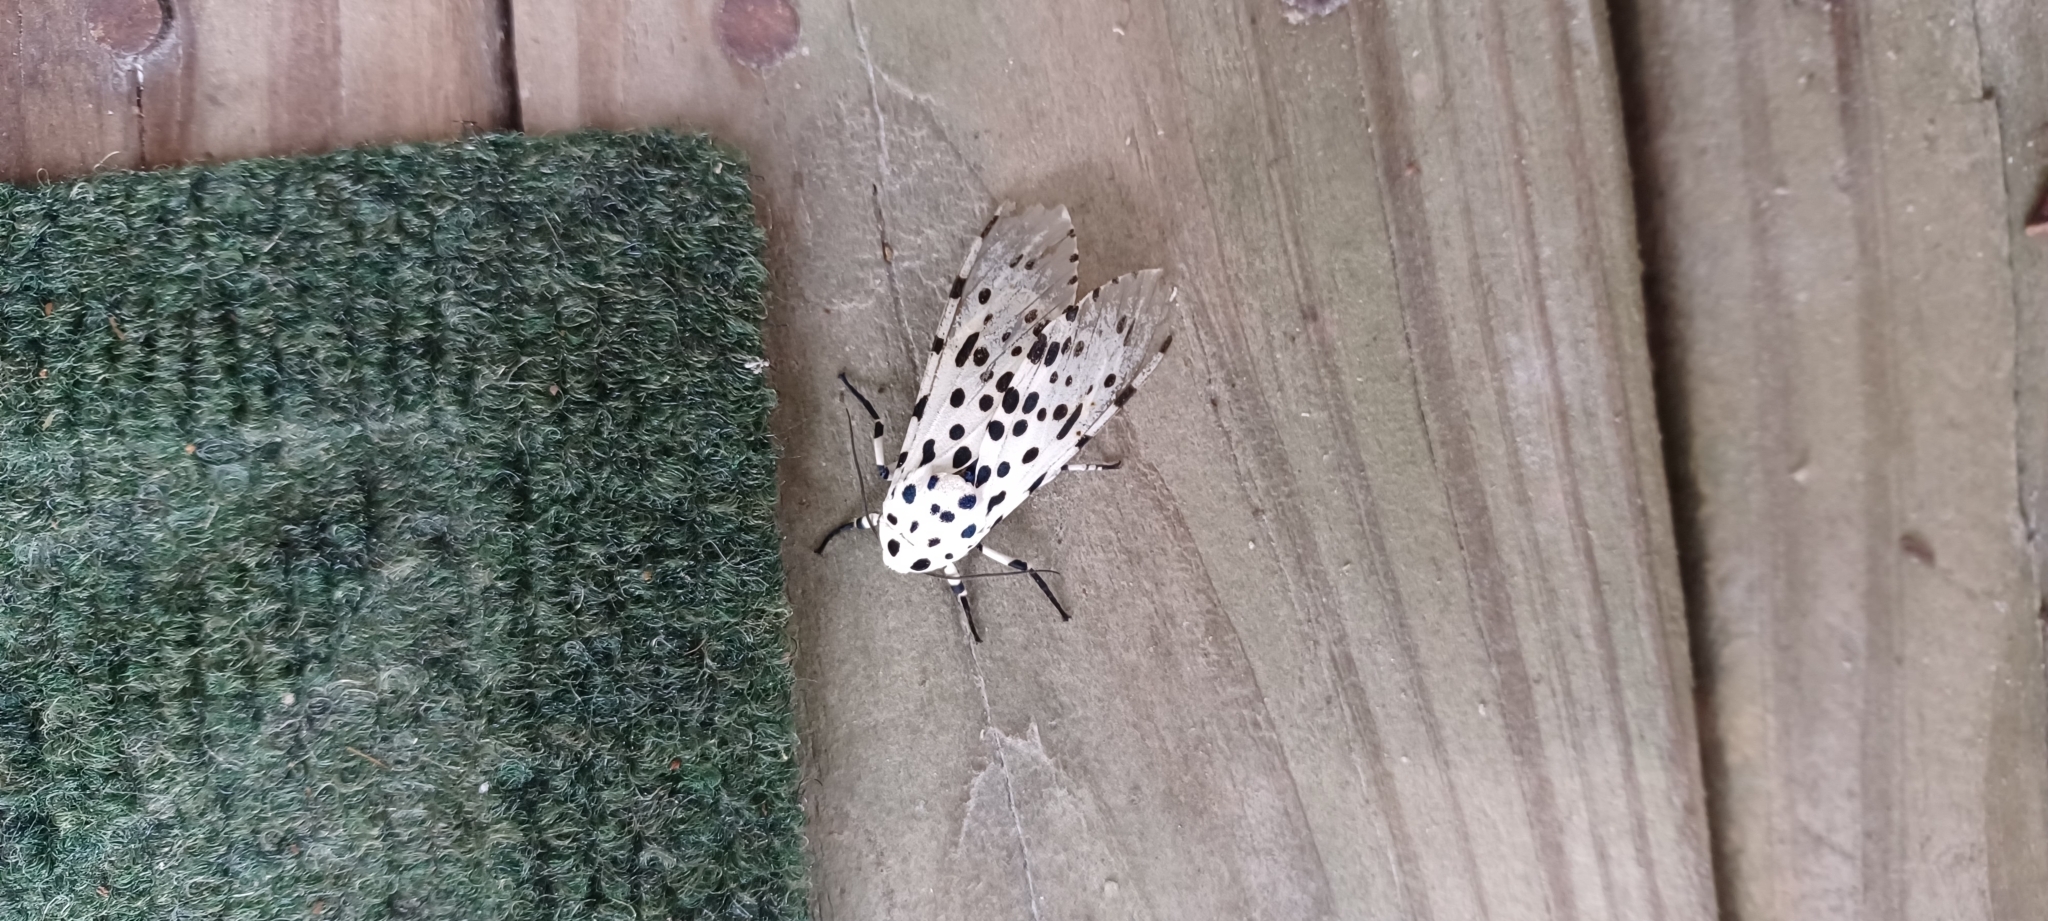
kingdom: Animalia
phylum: Arthropoda
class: Insecta
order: Lepidoptera
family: Erebidae
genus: Hypercompe
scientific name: Hypercompe scribonia
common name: Giant leopard moth
